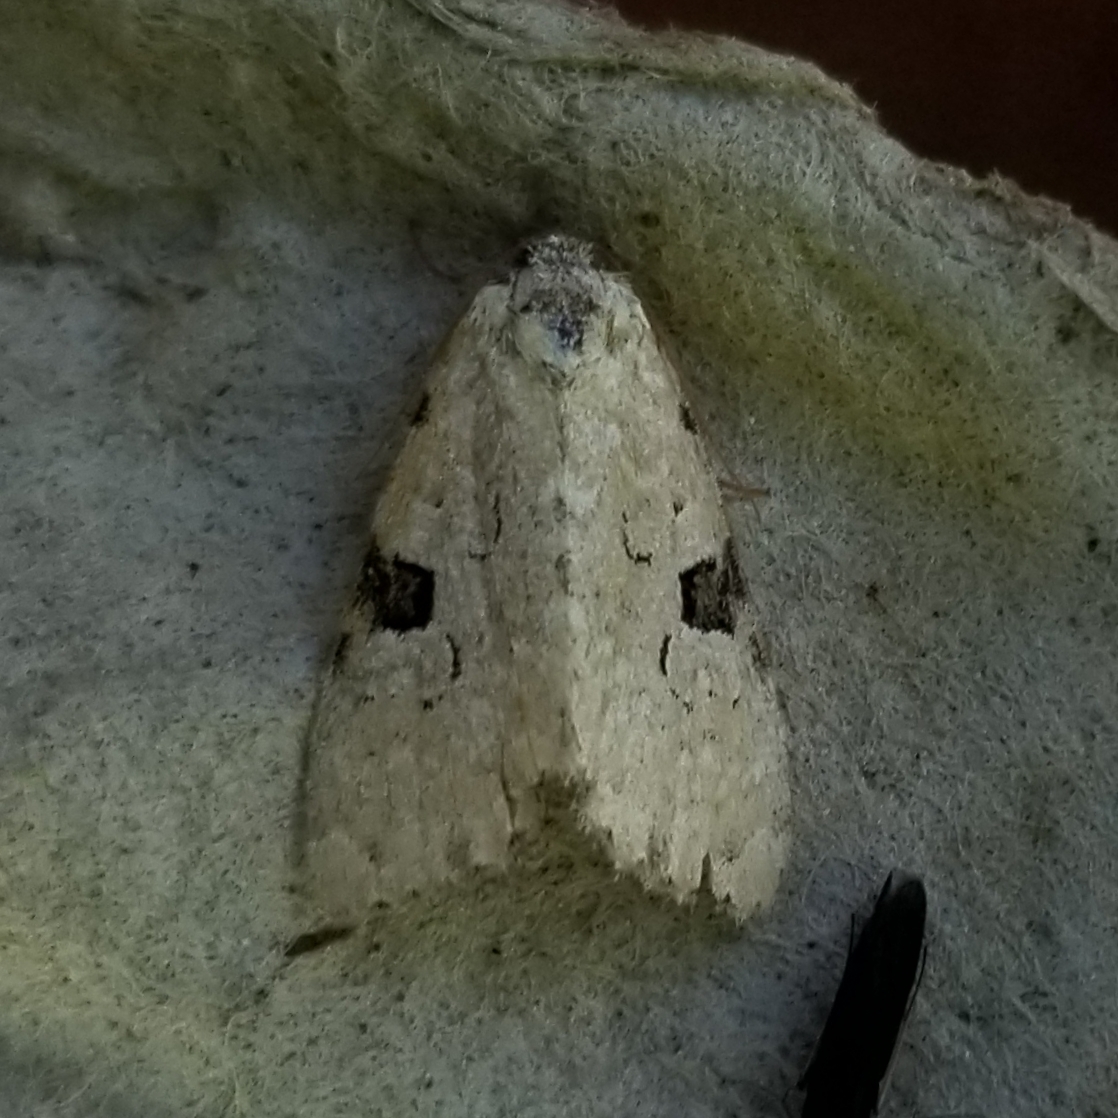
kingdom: Animalia
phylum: Arthropoda
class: Insecta
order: Lepidoptera
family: Noctuidae
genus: Leuconycta
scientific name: Leuconycta diphteroides
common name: Green leuconycta moth
